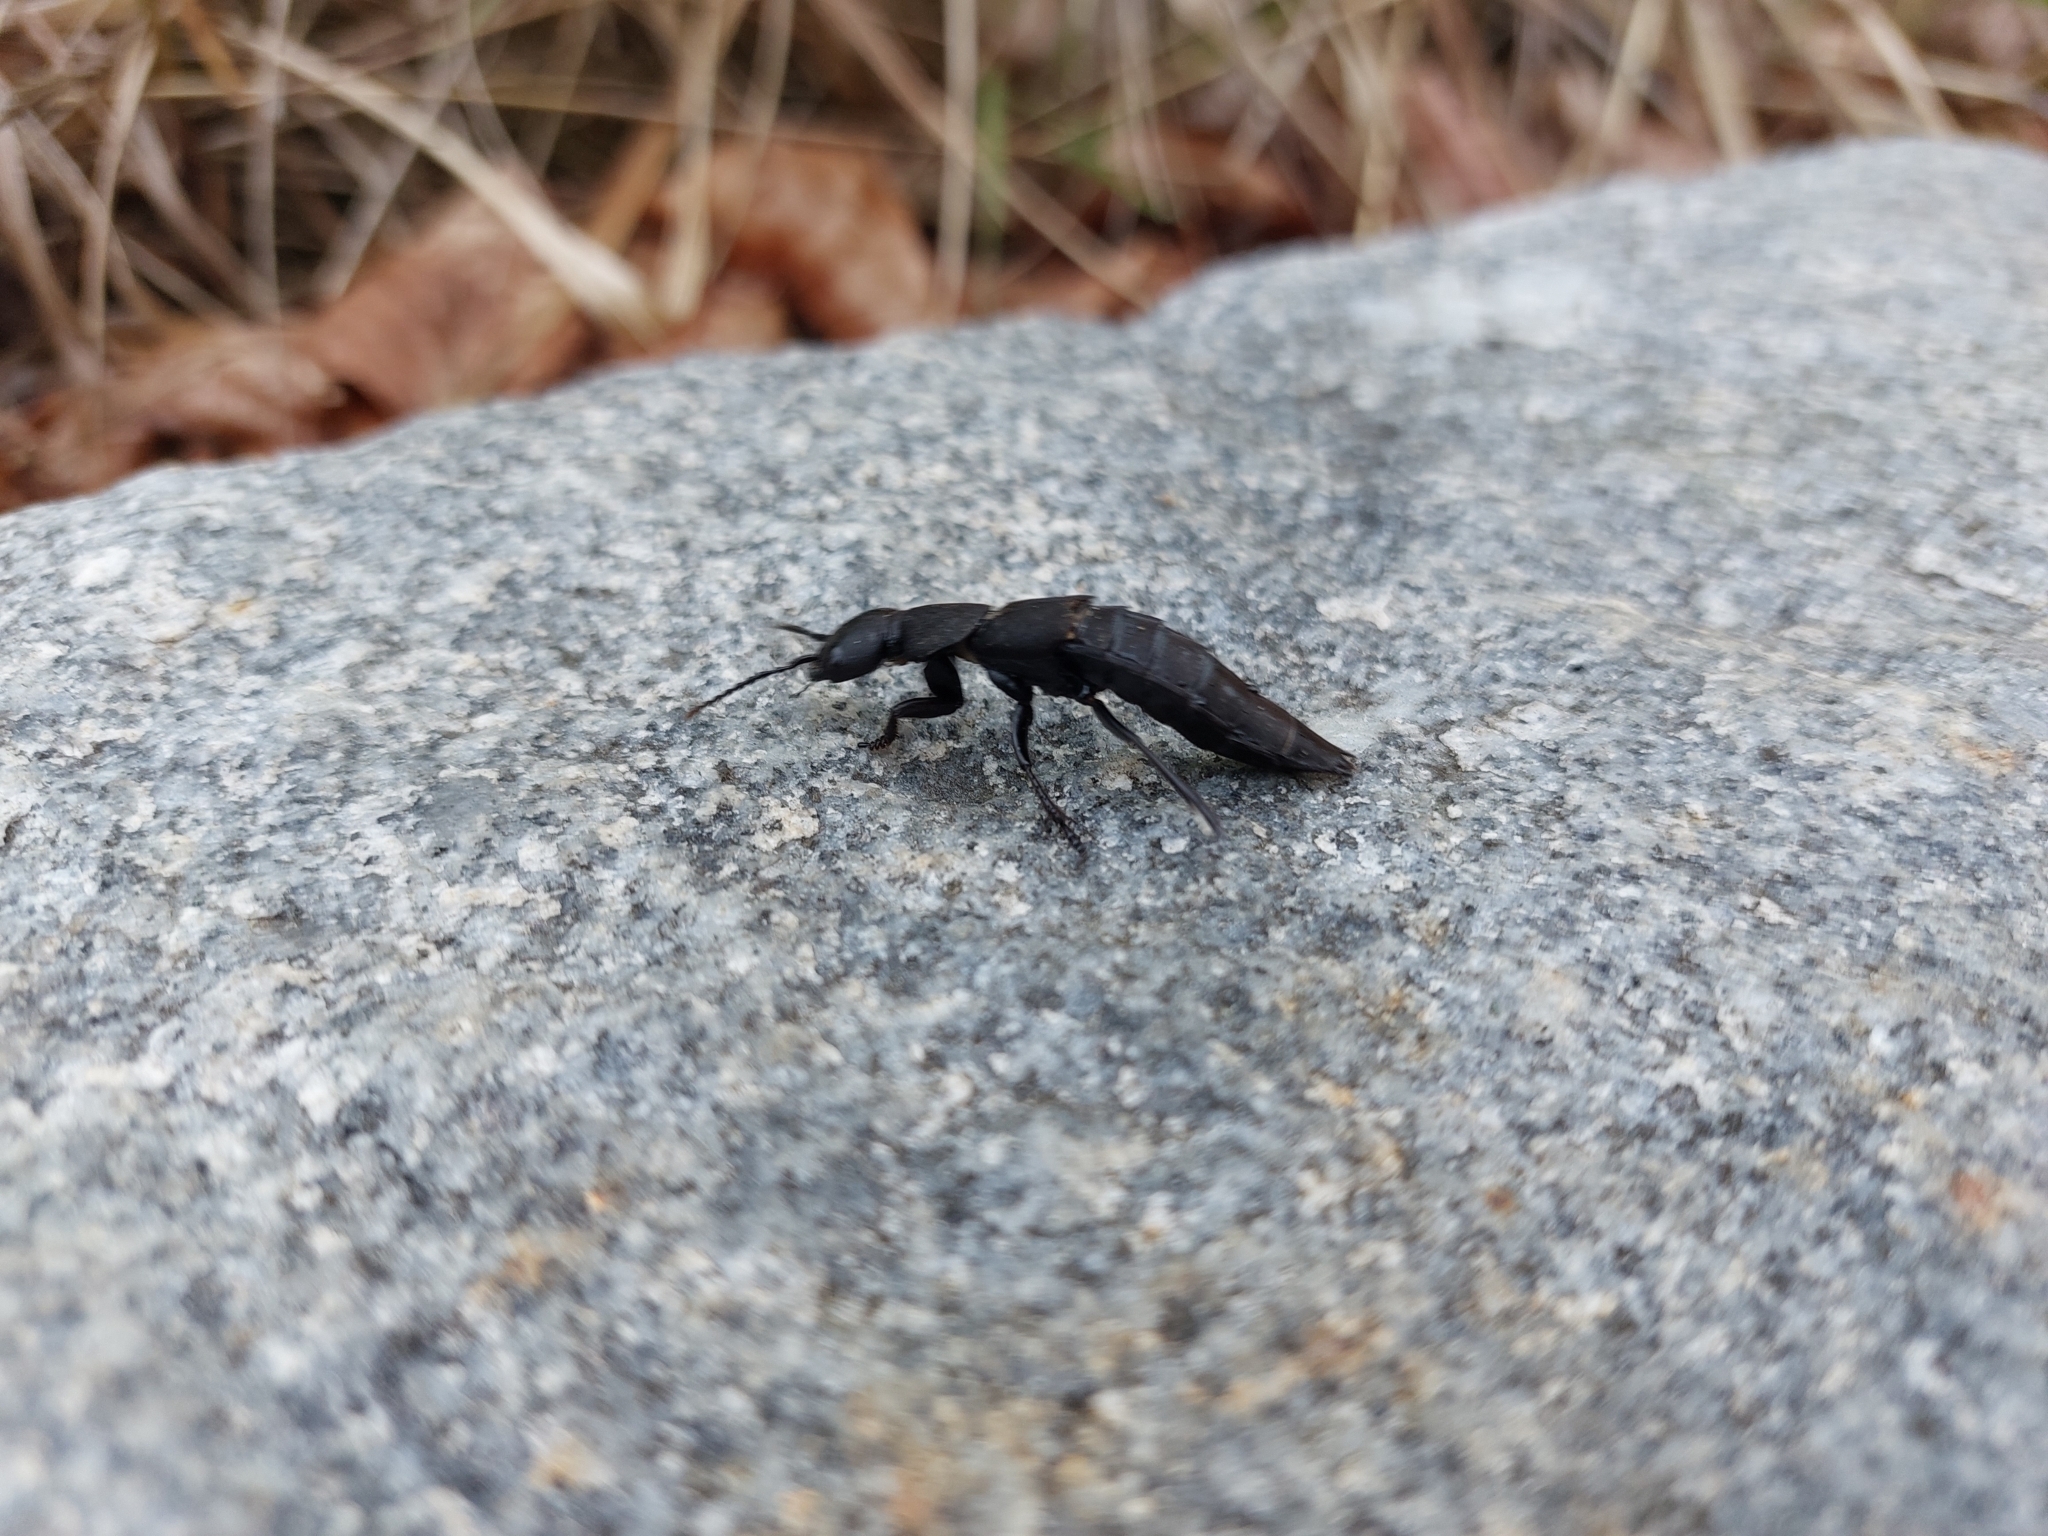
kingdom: Animalia
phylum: Arthropoda
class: Insecta
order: Coleoptera
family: Staphylinidae
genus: Ocypus
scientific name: Ocypus olens
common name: Devil's coach-horse
